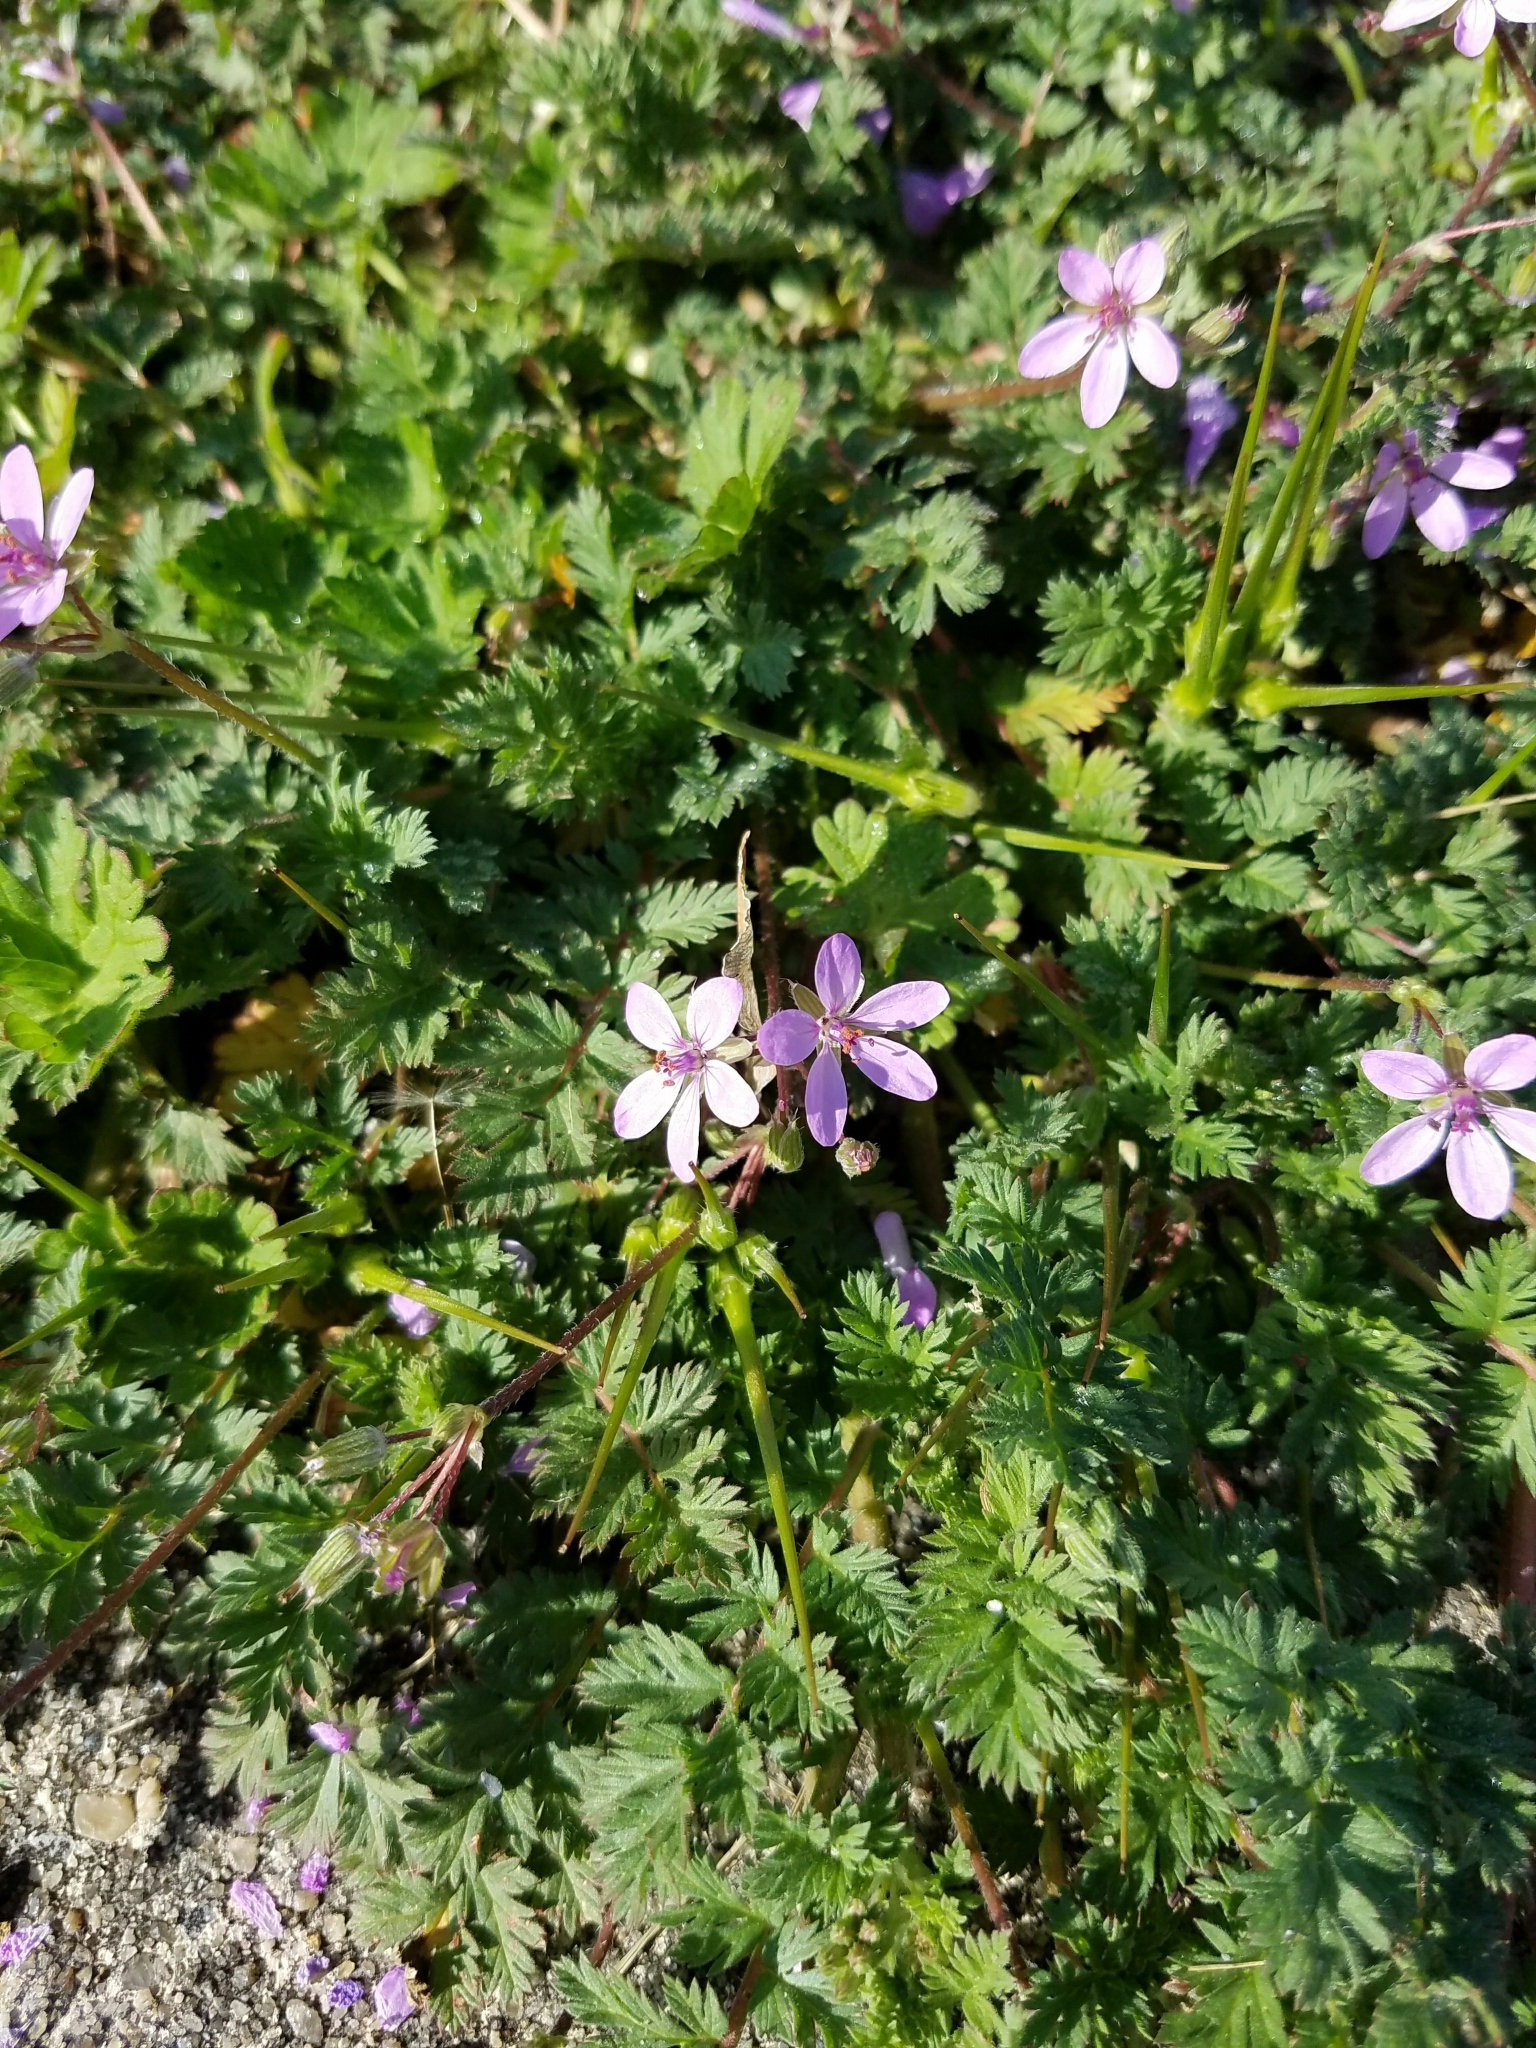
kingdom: Plantae
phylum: Tracheophyta
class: Magnoliopsida
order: Geraniales
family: Geraniaceae
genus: Erodium
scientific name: Erodium cicutarium
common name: Common stork's-bill
